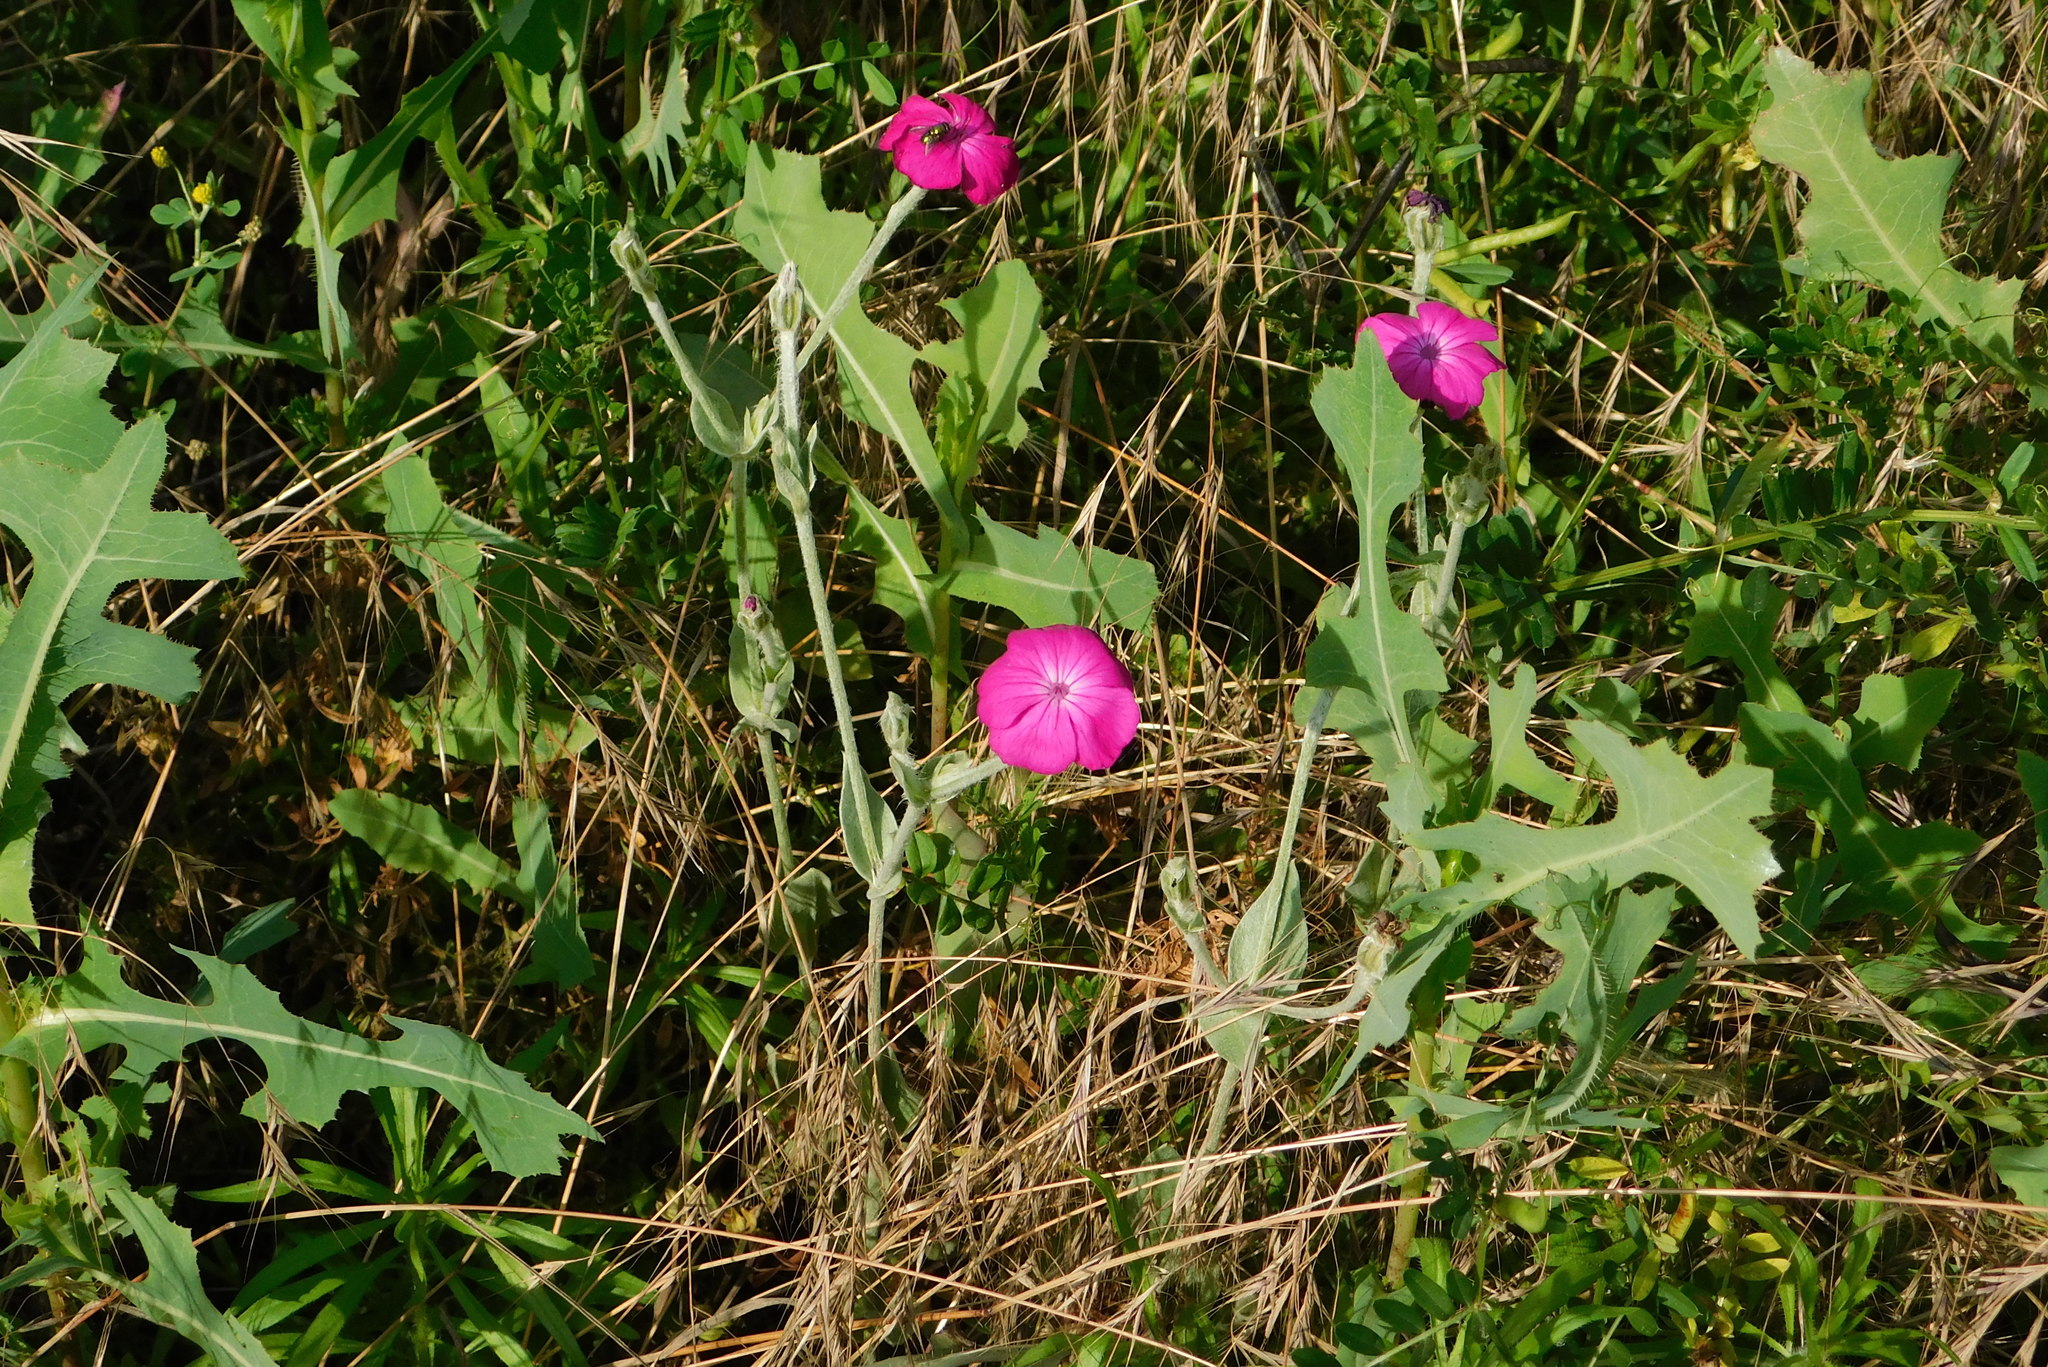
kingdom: Plantae
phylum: Tracheophyta
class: Magnoliopsida
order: Caryophyllales
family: Caryophyllaceae
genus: Silene
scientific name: Silene coronaria
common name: Rose campion
